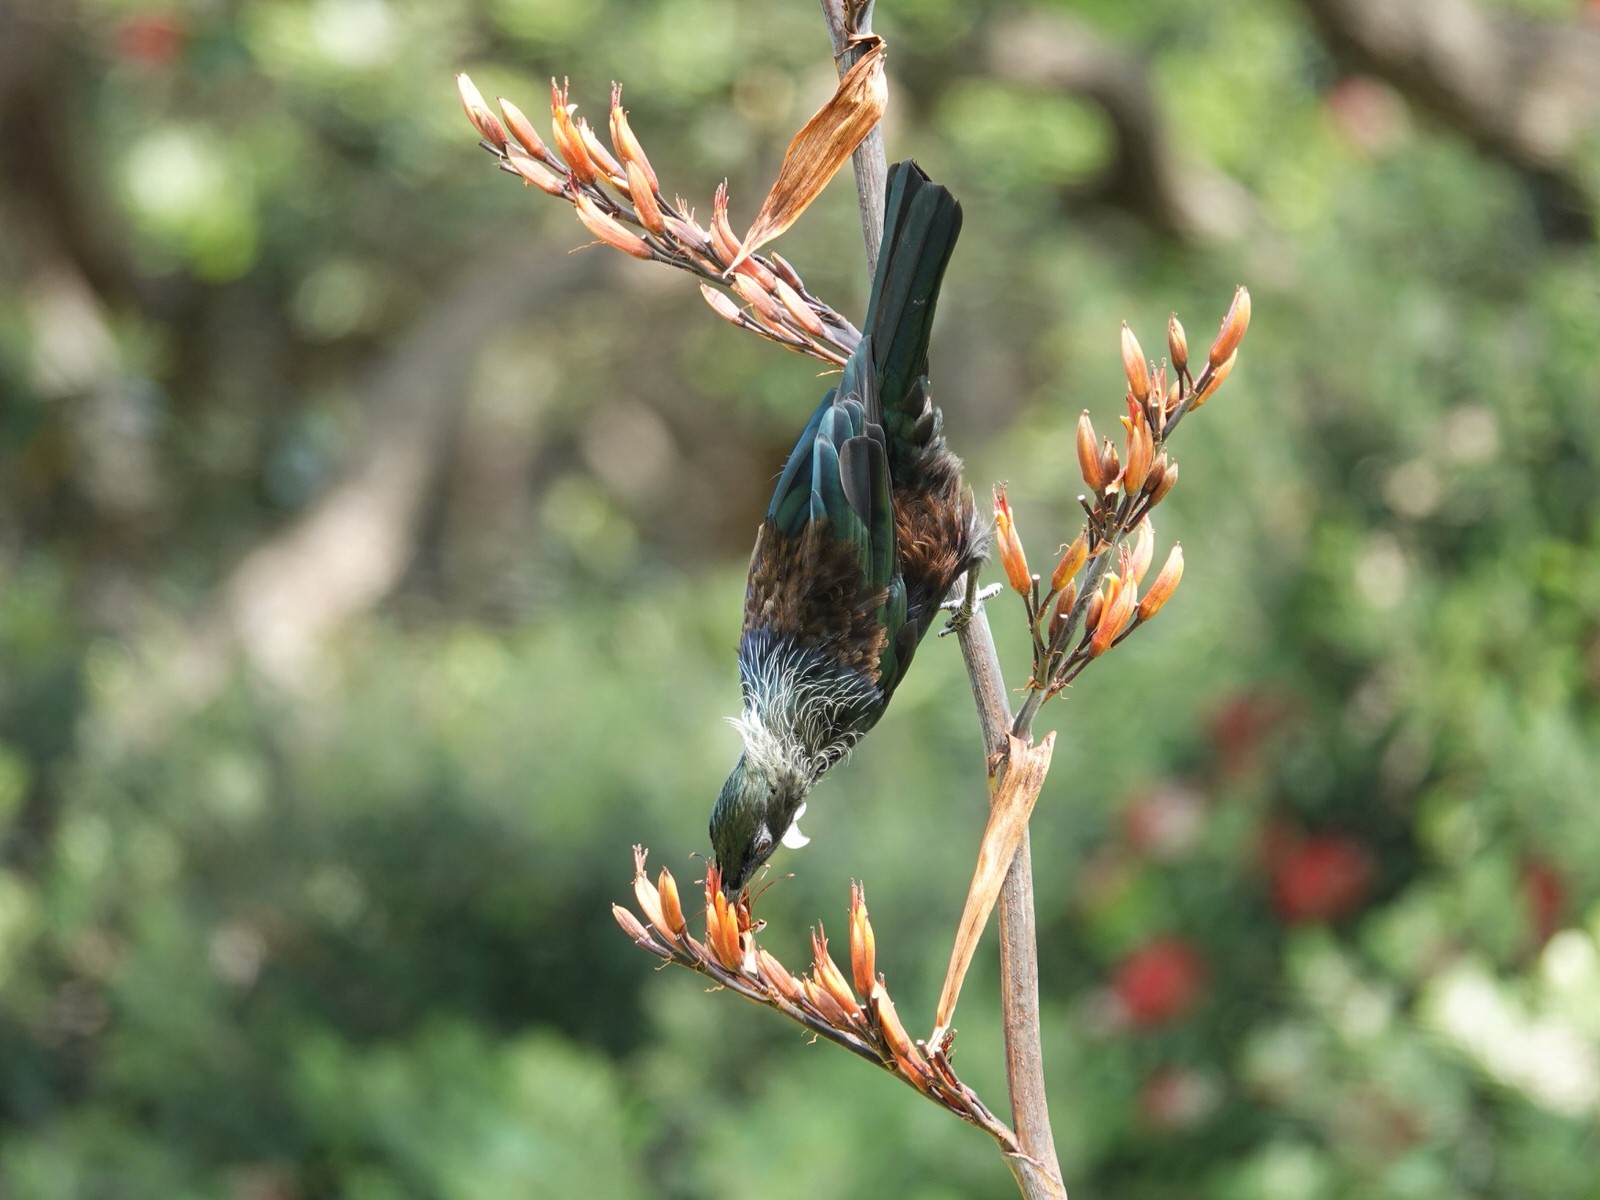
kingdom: Animalia
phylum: Chordata
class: Aves
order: Passeriformes
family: Meliphagidae
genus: Prosthemadera
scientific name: Prosthemadera novaeseelandiae
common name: Tui
